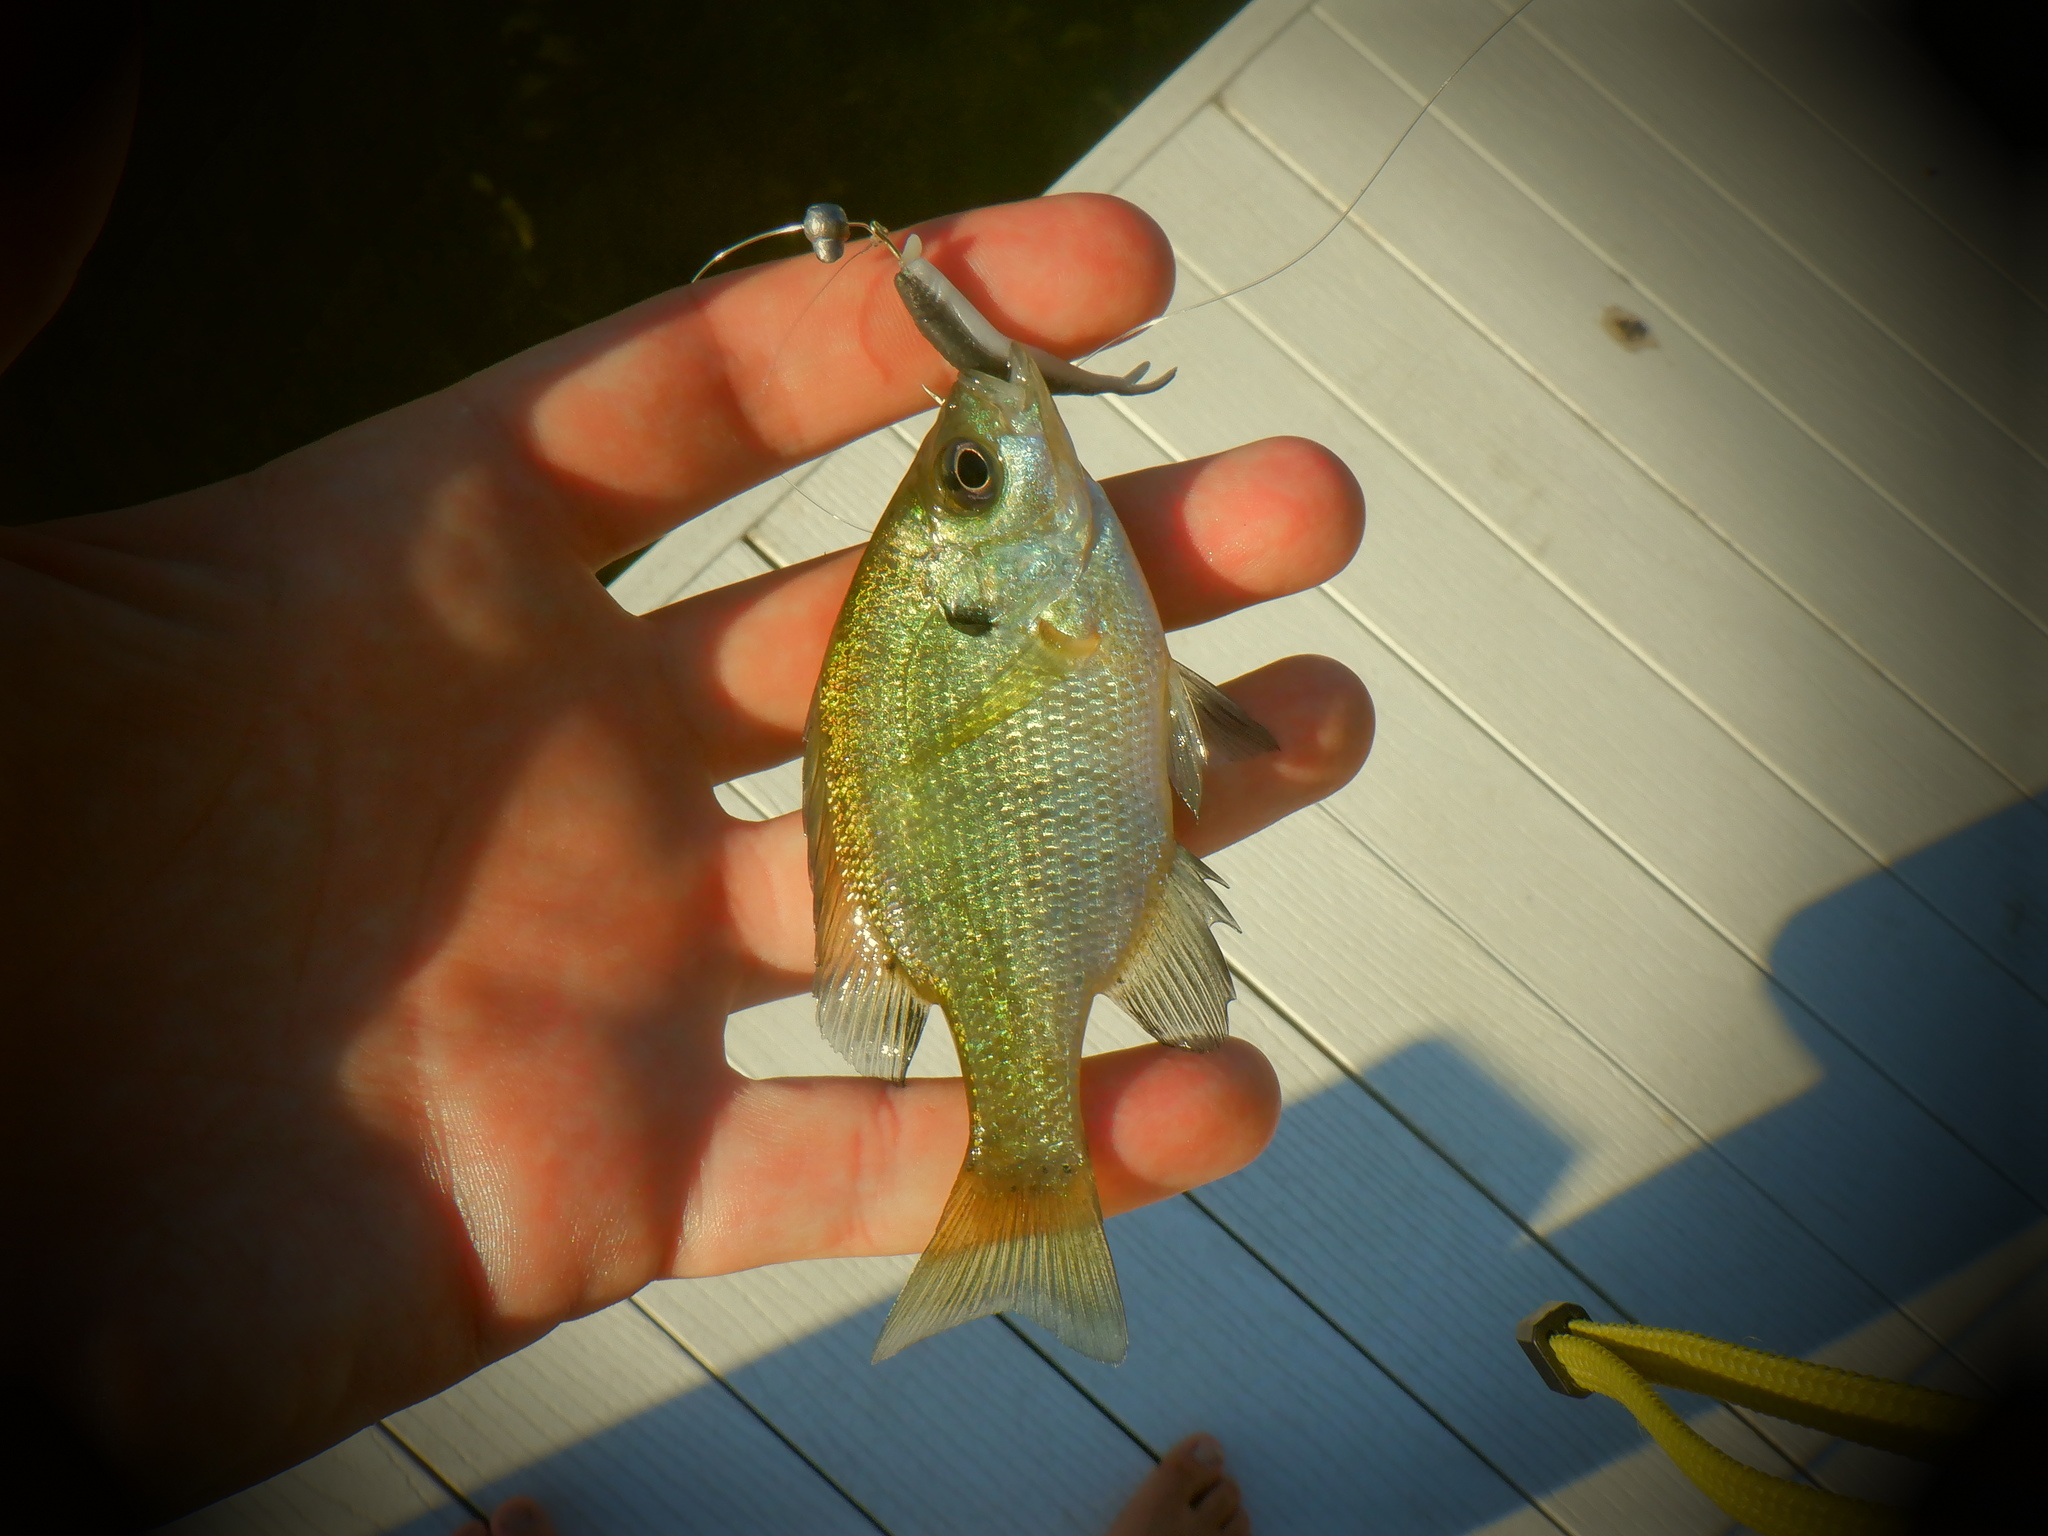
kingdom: Animalia
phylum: Chordata
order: Perciformes
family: Centrarchidae
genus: Lepomis
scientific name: Lepomis macrochirus
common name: Bluegill
